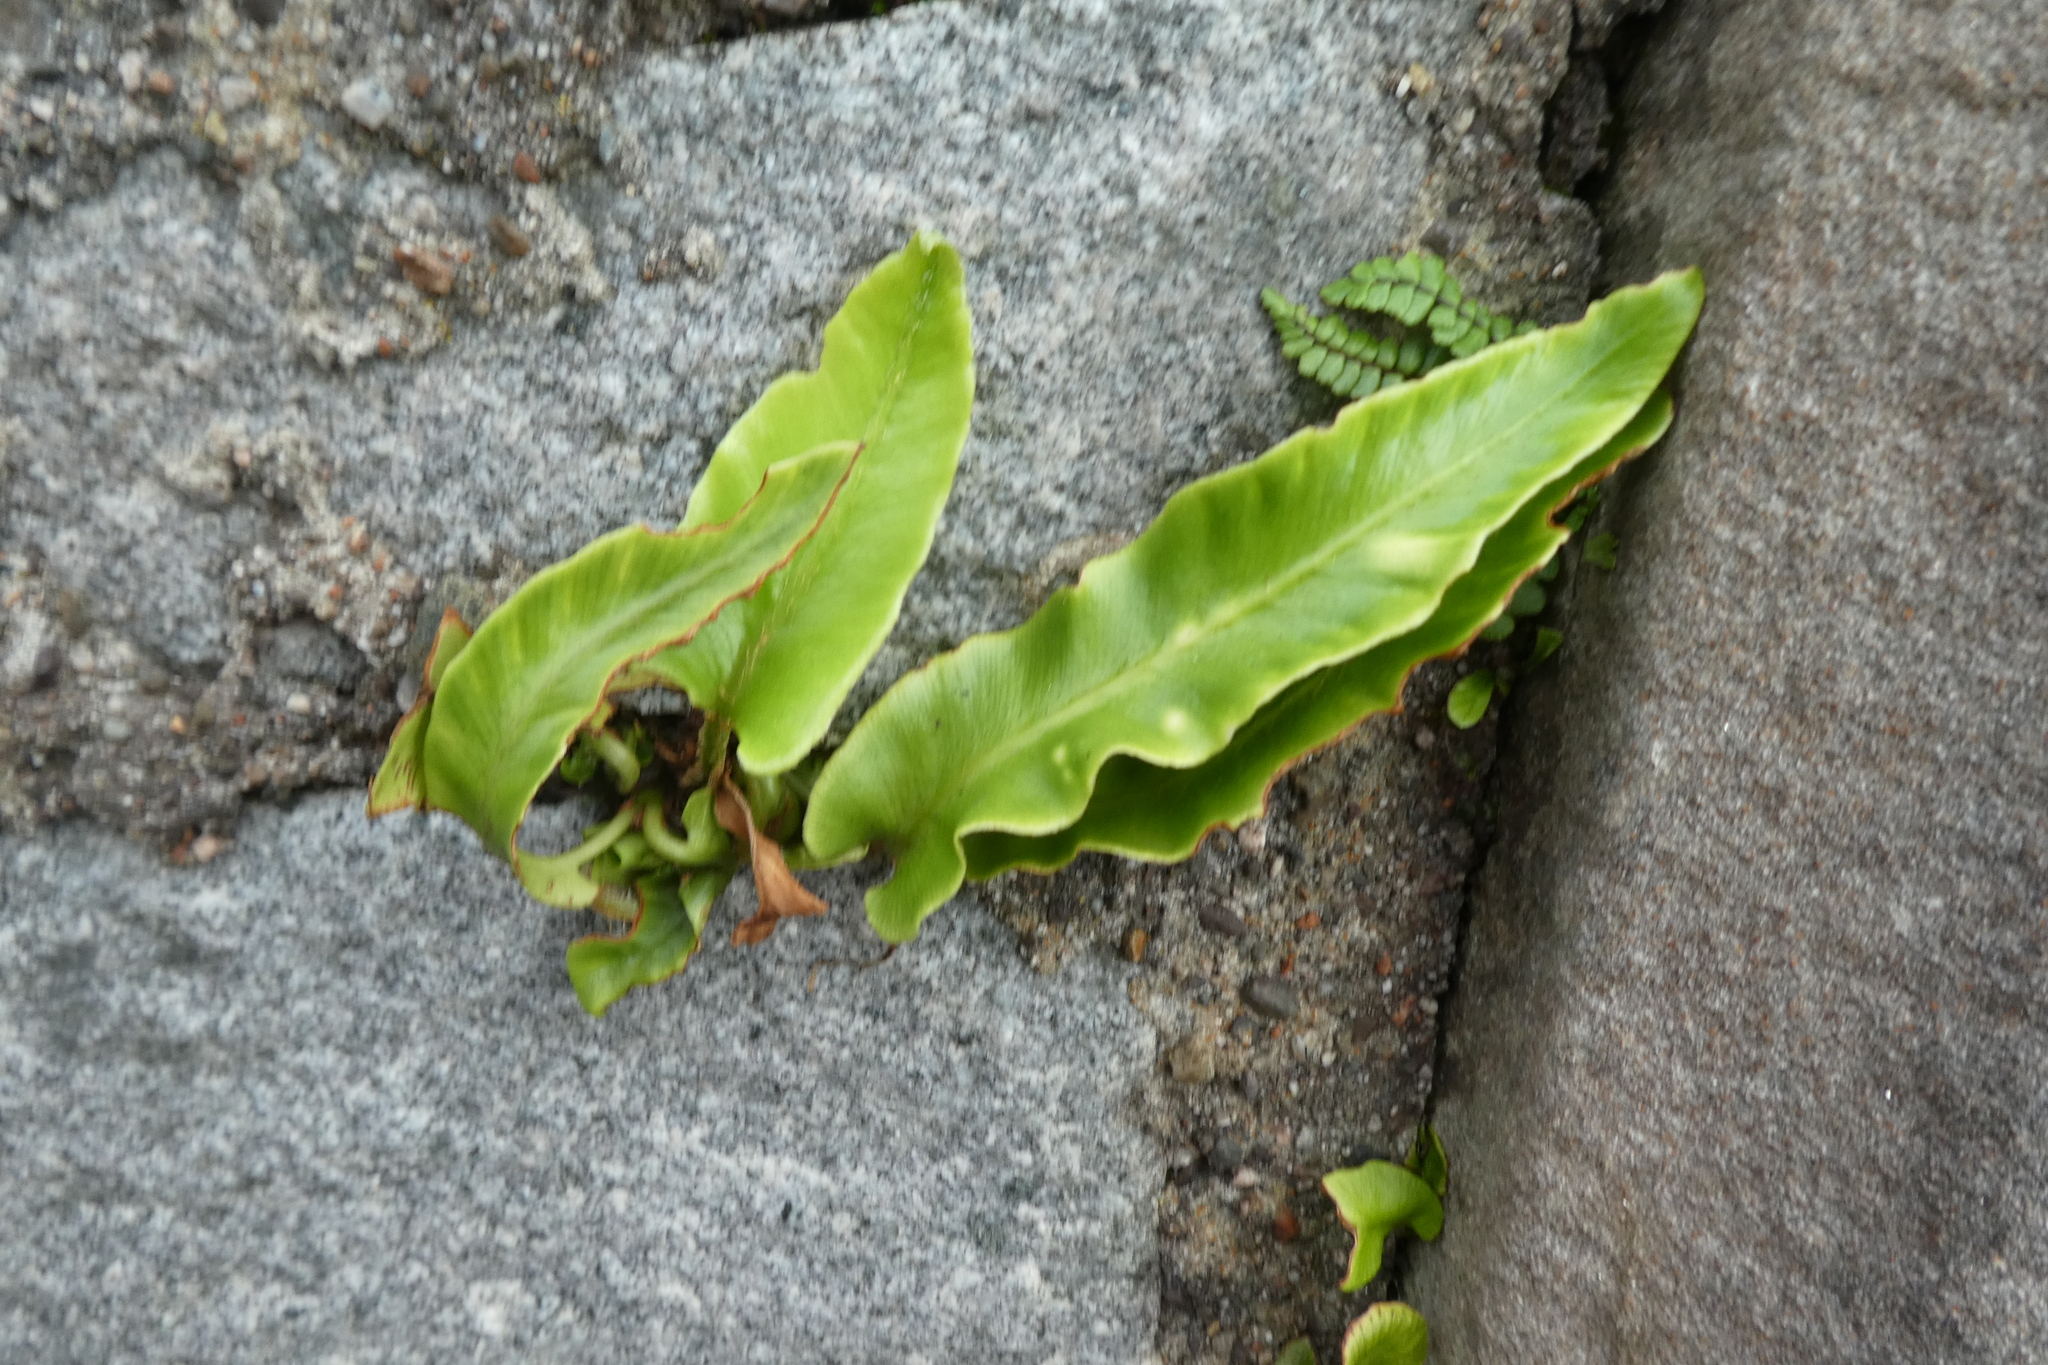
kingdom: Plantae
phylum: Tracheophyta
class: Polypodiopsida
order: Polypodiales
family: Aspleniaceae
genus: Asplenium
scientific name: Asplenium scolopendrium
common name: Hart's-tongue fern
